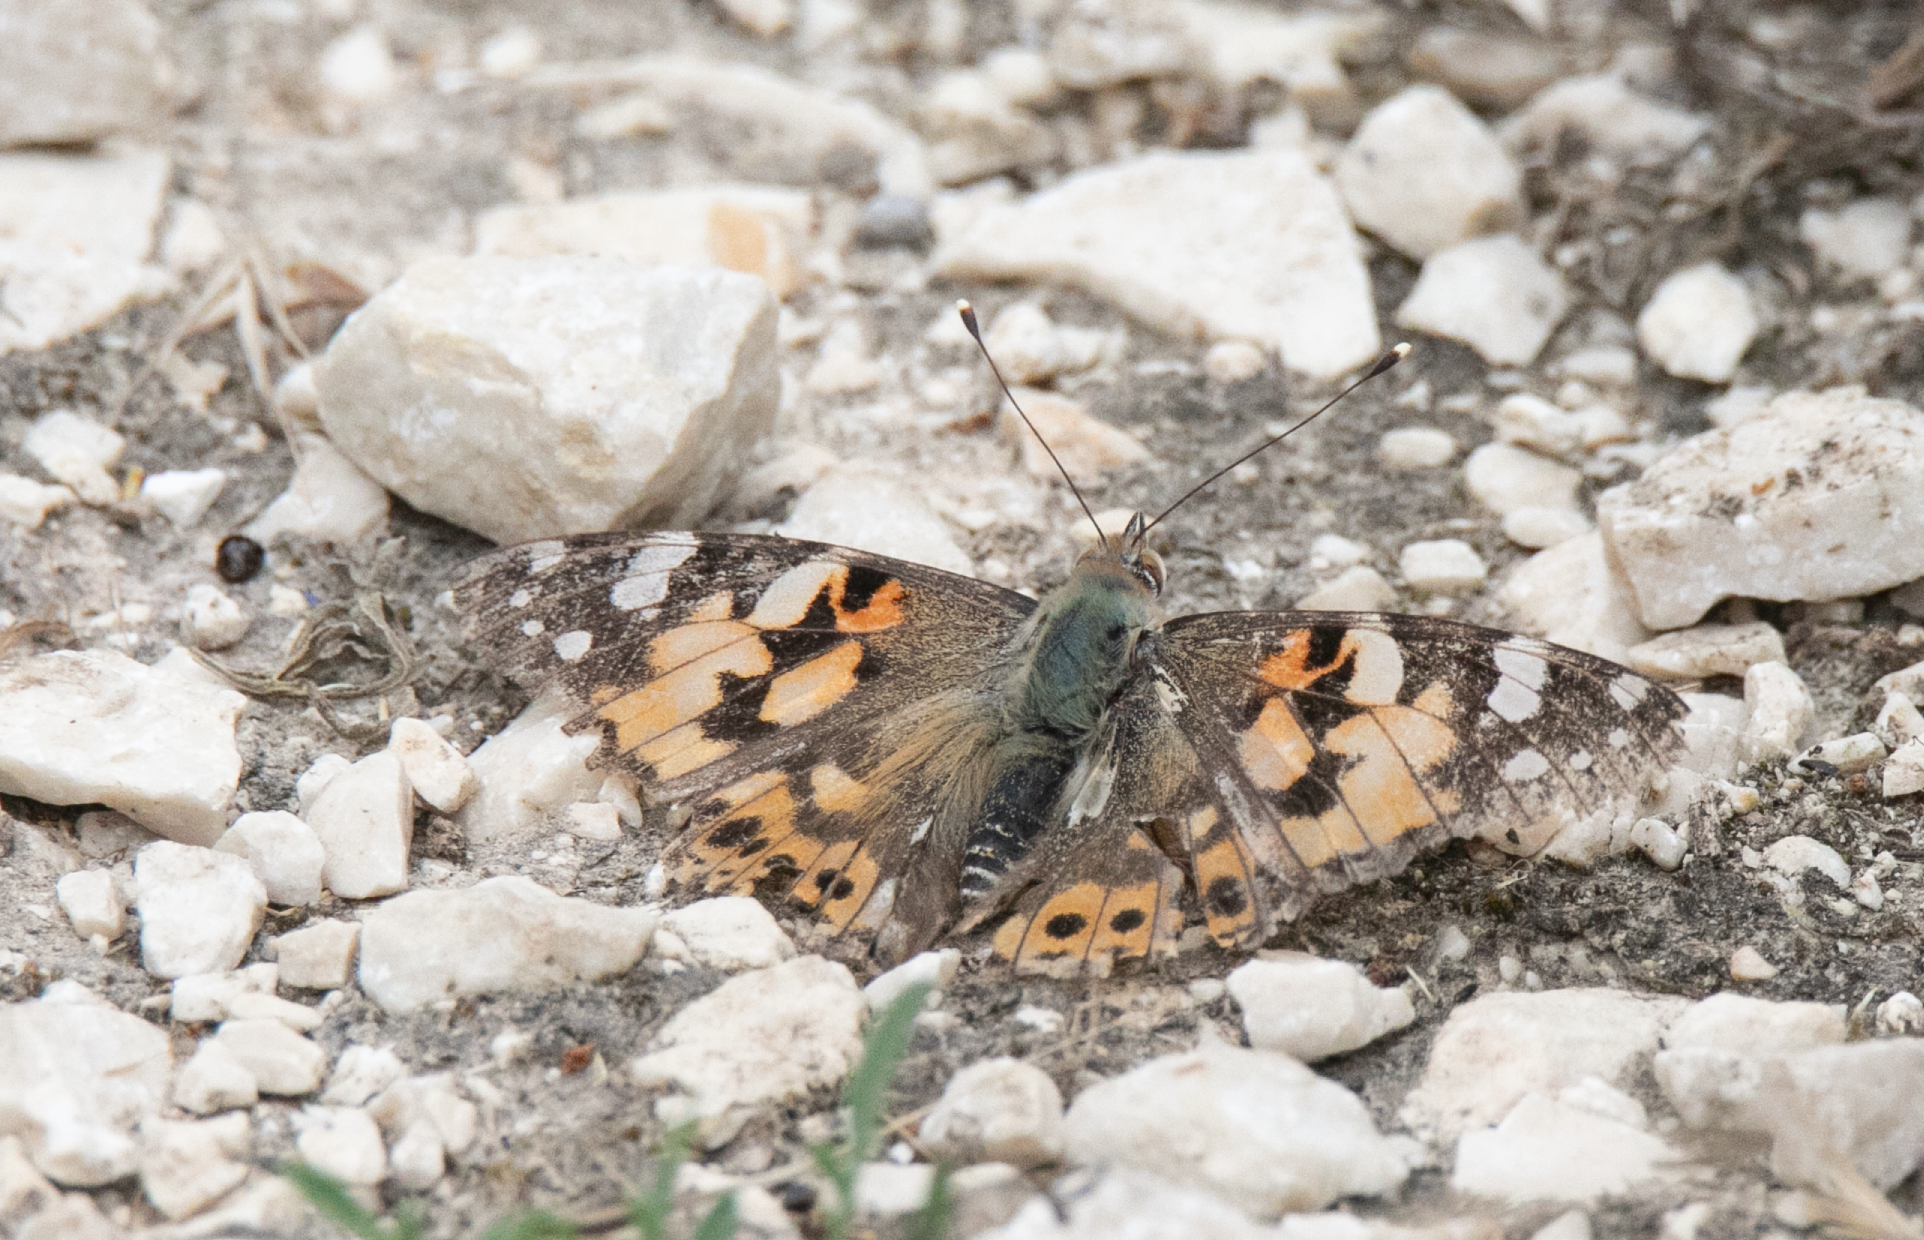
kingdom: Animalia
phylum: Arthropoda
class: Insecta
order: Lepidoptera
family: Nymphalidae
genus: Vanessa
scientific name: Vanessa cardui
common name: Painted lady
